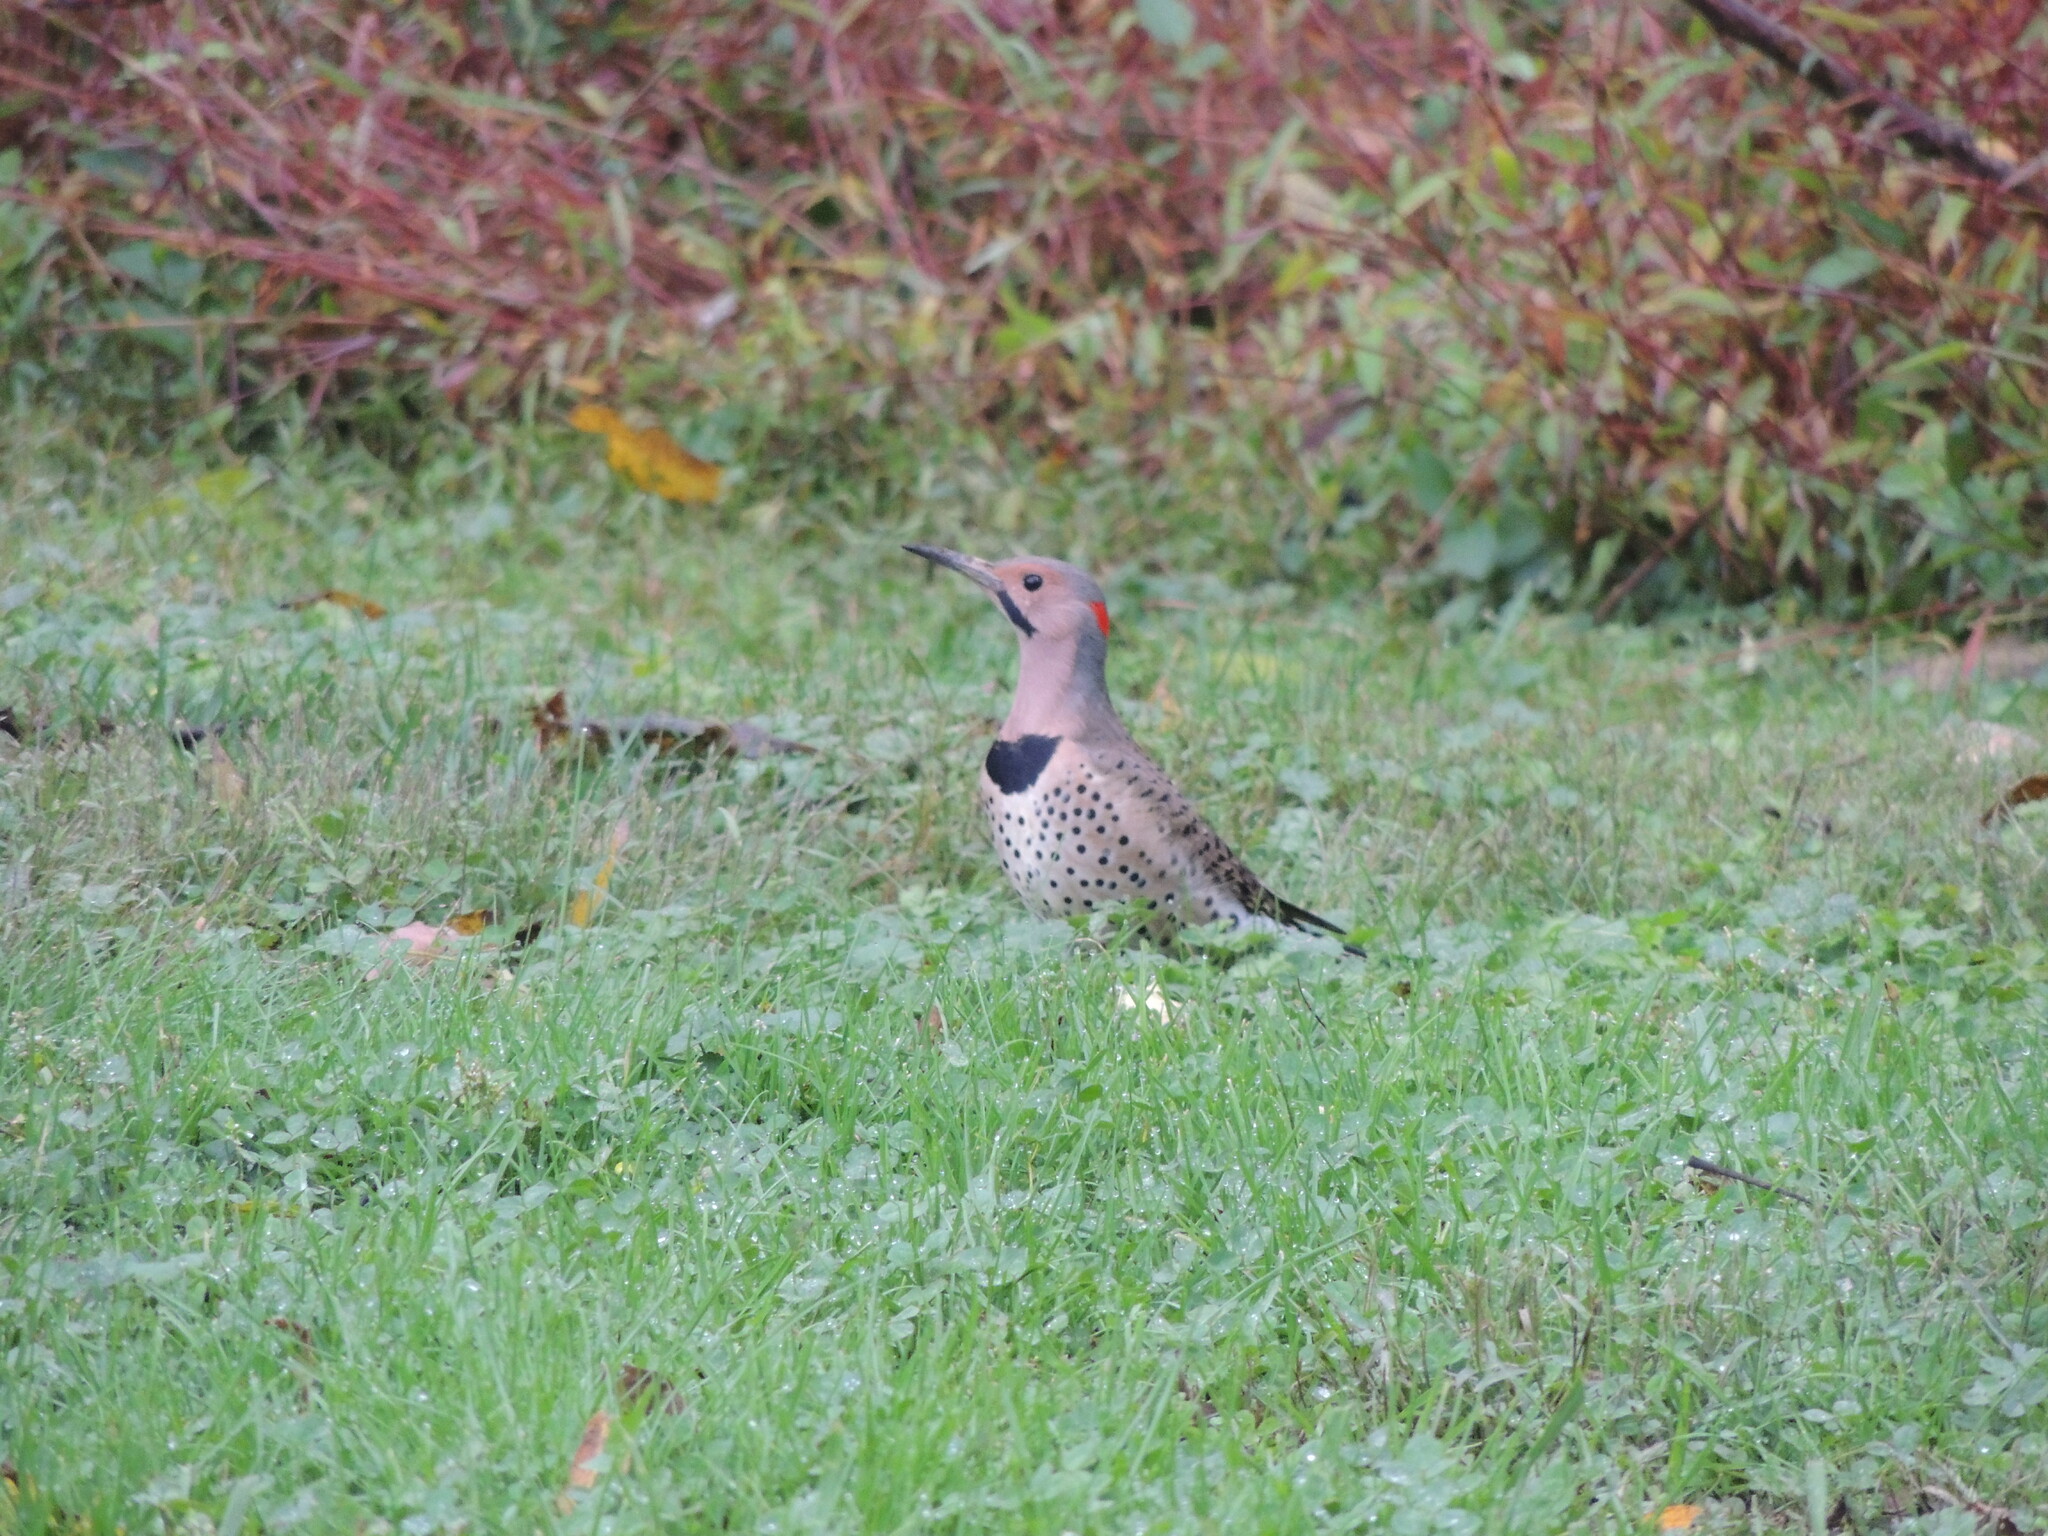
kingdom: Animalia
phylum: Chordata
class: Aves
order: Piciformes
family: Picidae
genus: Colaptes
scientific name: Colaptes auratus
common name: Northern flicker
